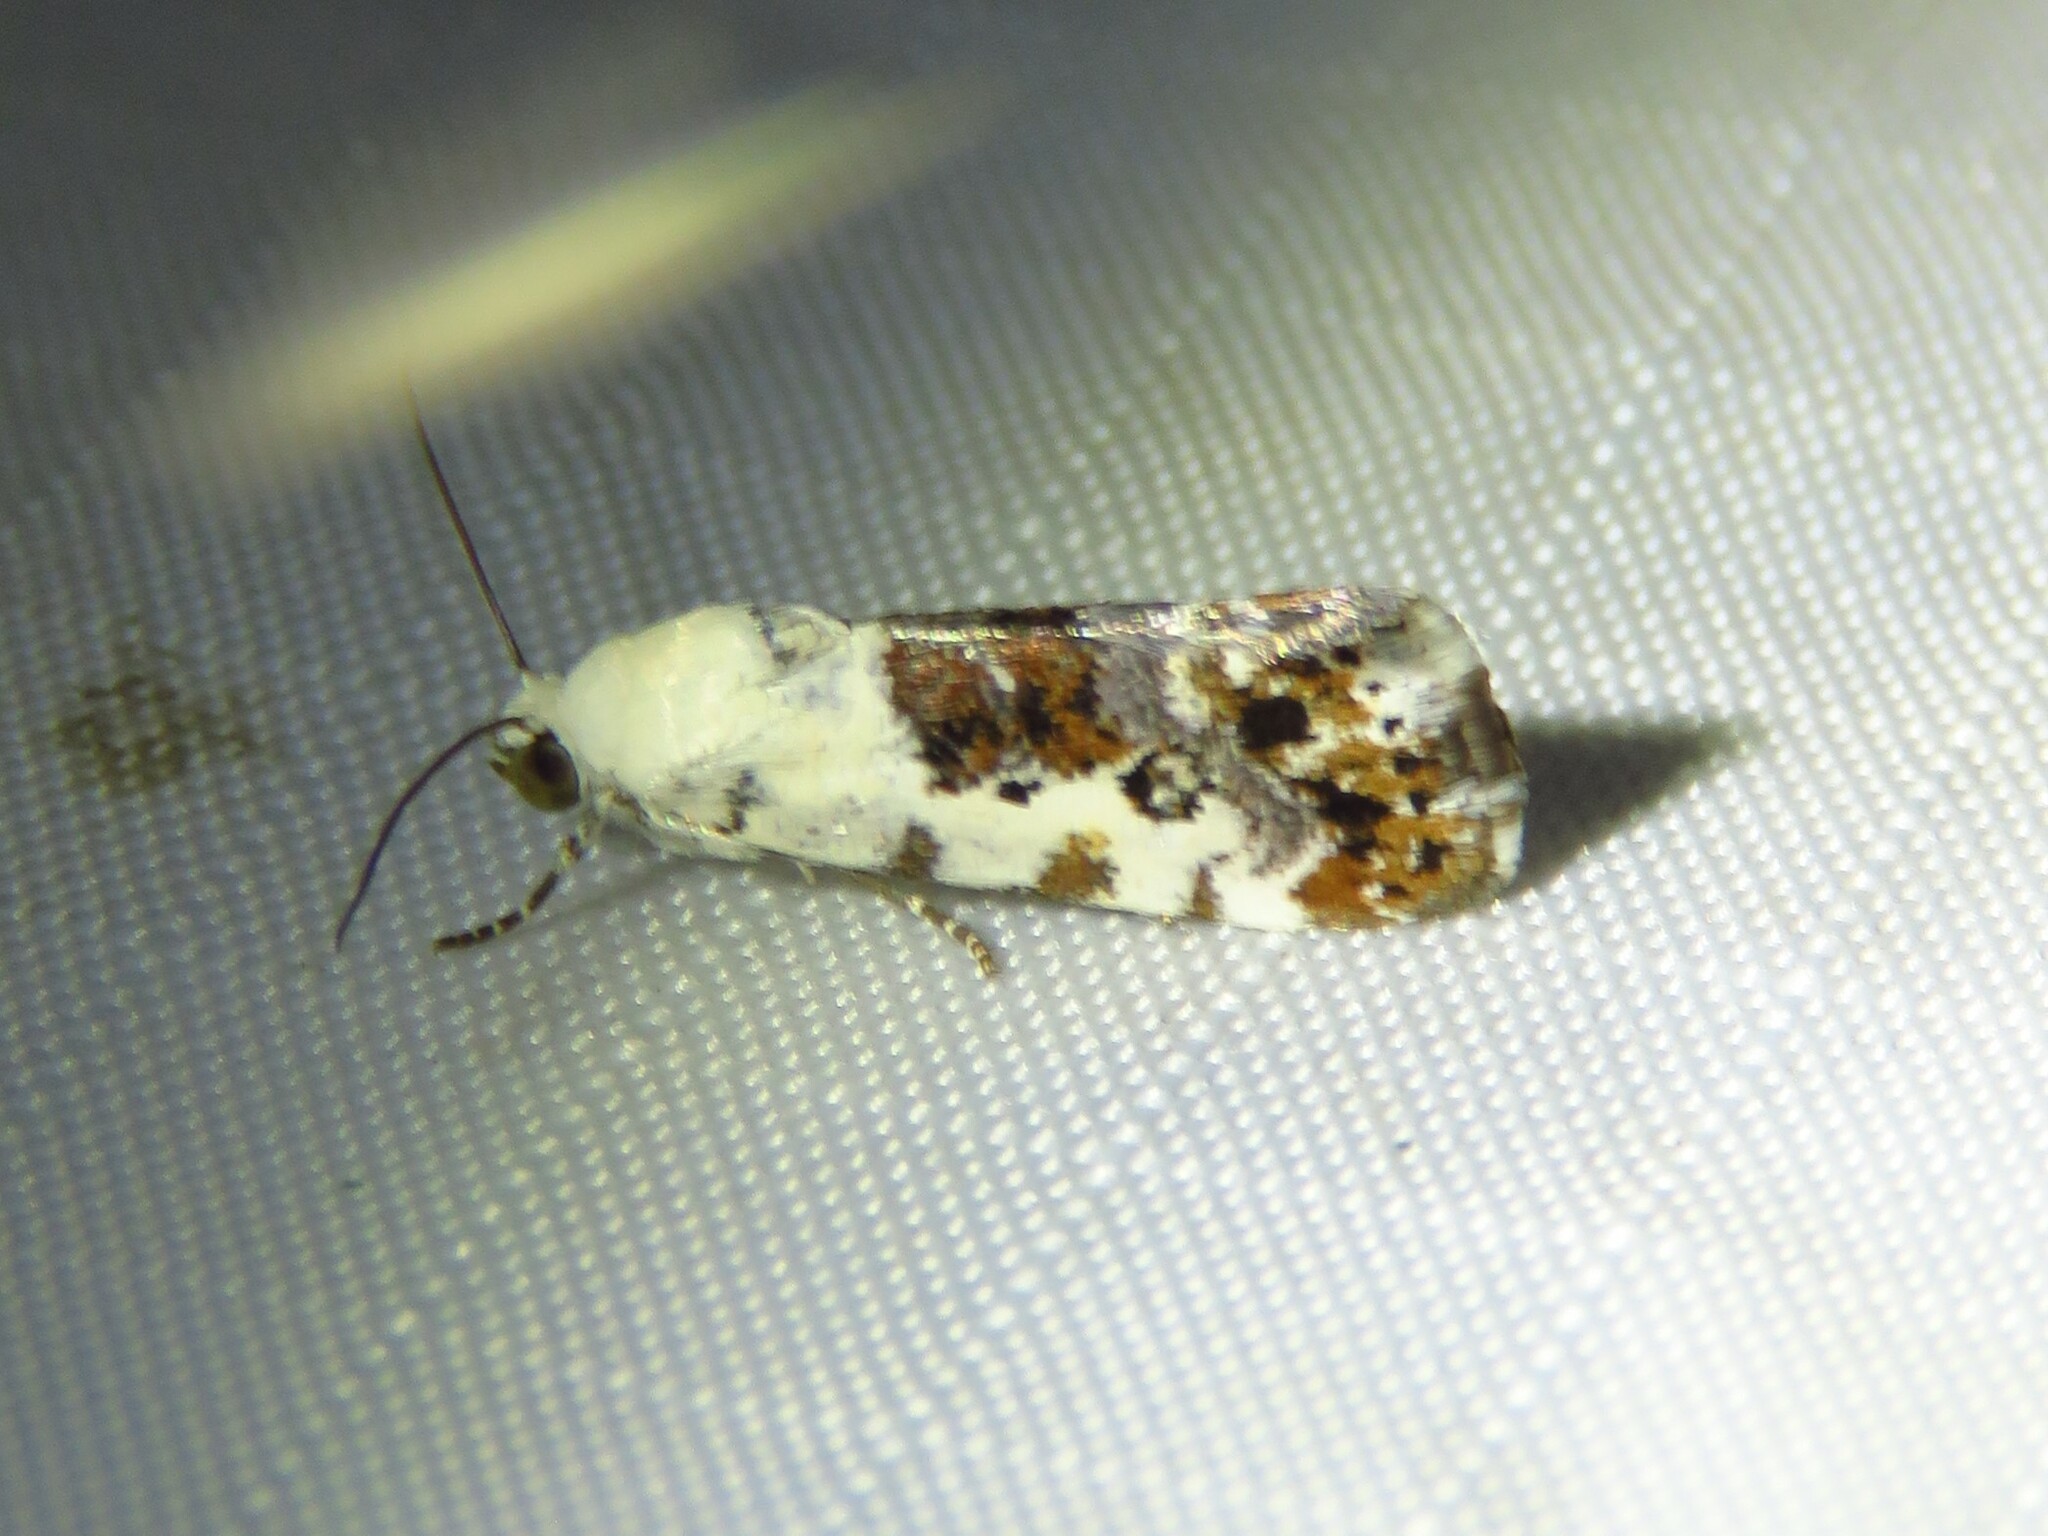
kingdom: Animalia
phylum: Arthropoda
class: Insecta
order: Lepidoptera
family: Noctuidae
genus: Acontia
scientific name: Acontia phecolisca
